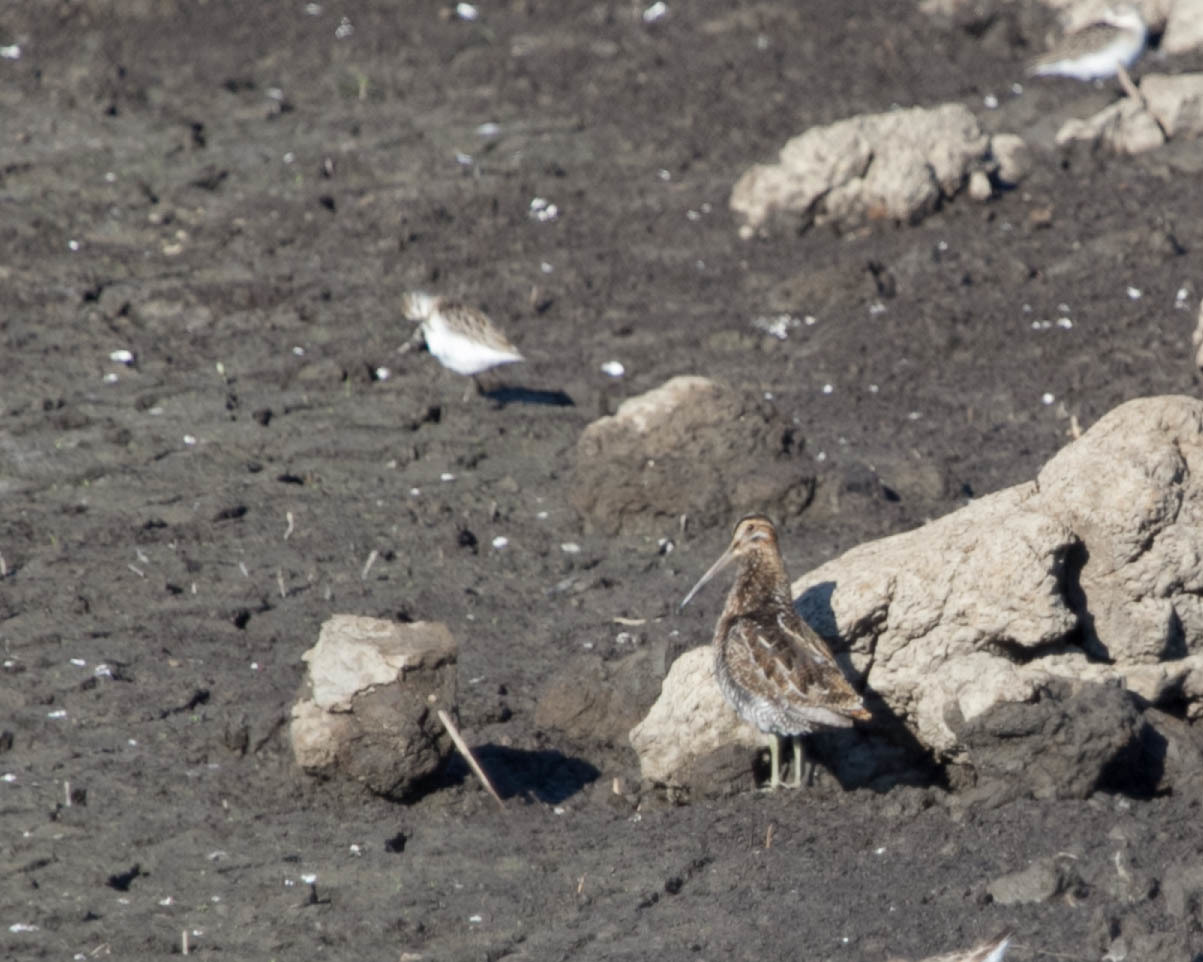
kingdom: Animalia
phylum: Chordata
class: Aves
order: Charadriiformes
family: Scolopacidae
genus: Gallinago
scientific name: Gallinago delicata
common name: Wilson's snipe
